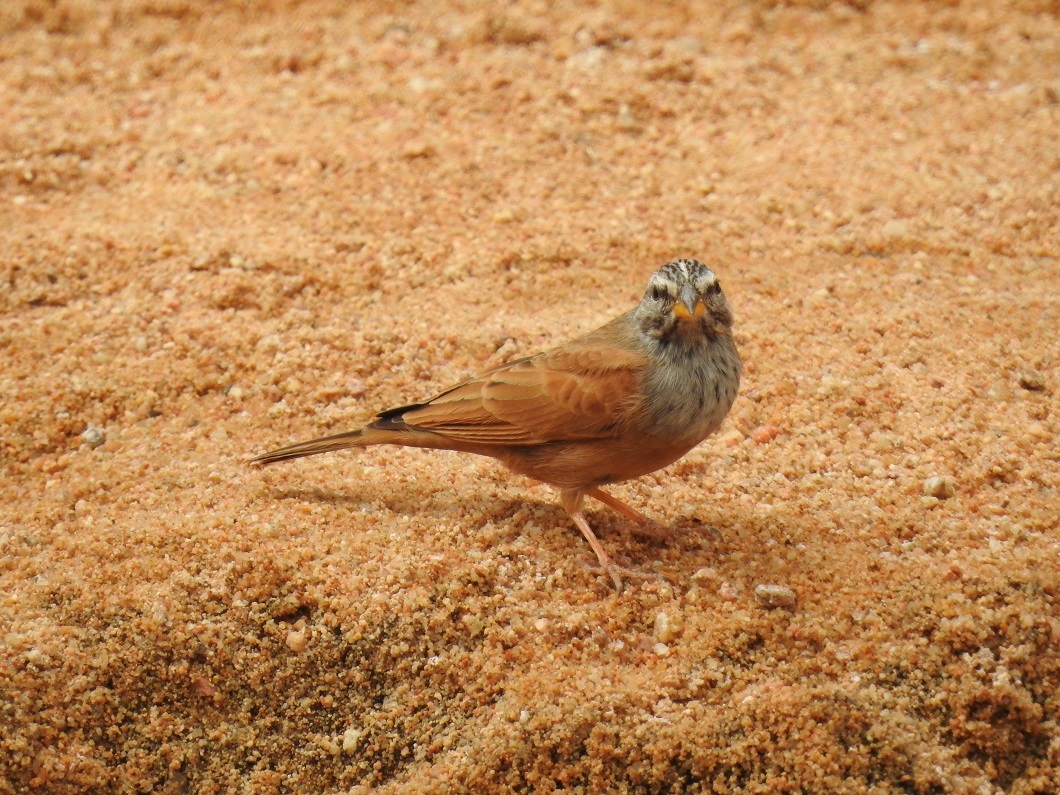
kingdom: Animalia
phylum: Chordata
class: Aves
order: Passeriformes
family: Emberizidae
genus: Emberiza
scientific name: Emberiza sahari
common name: House bunting
